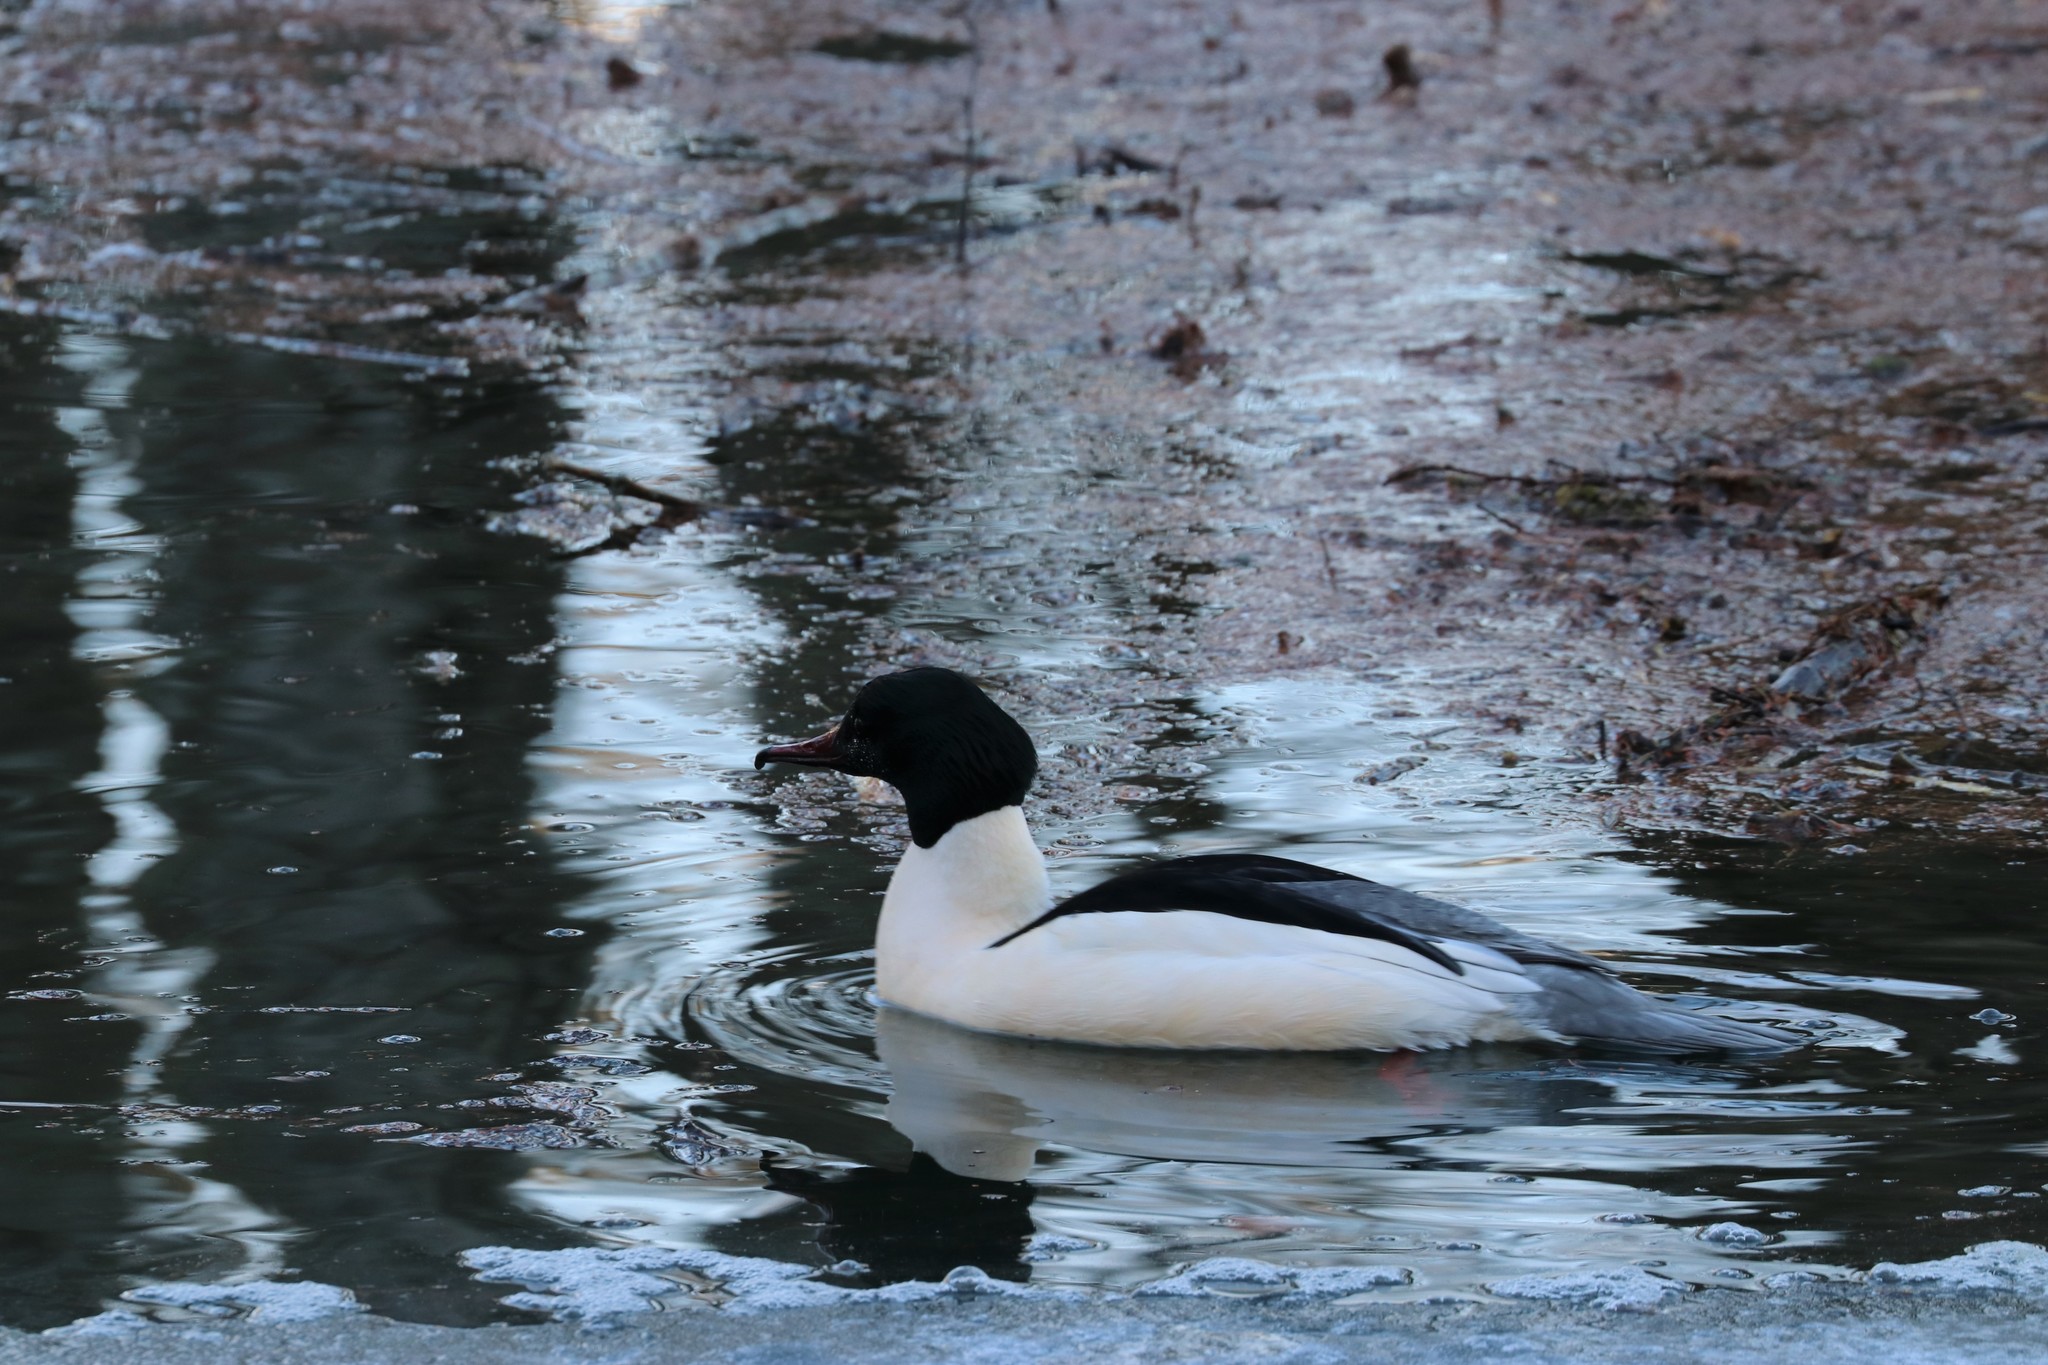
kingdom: Animalia
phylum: Chordata
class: Aves
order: Anseriformes
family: Anatidae
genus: Mergus
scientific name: Mergus merganser
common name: Common merganser
